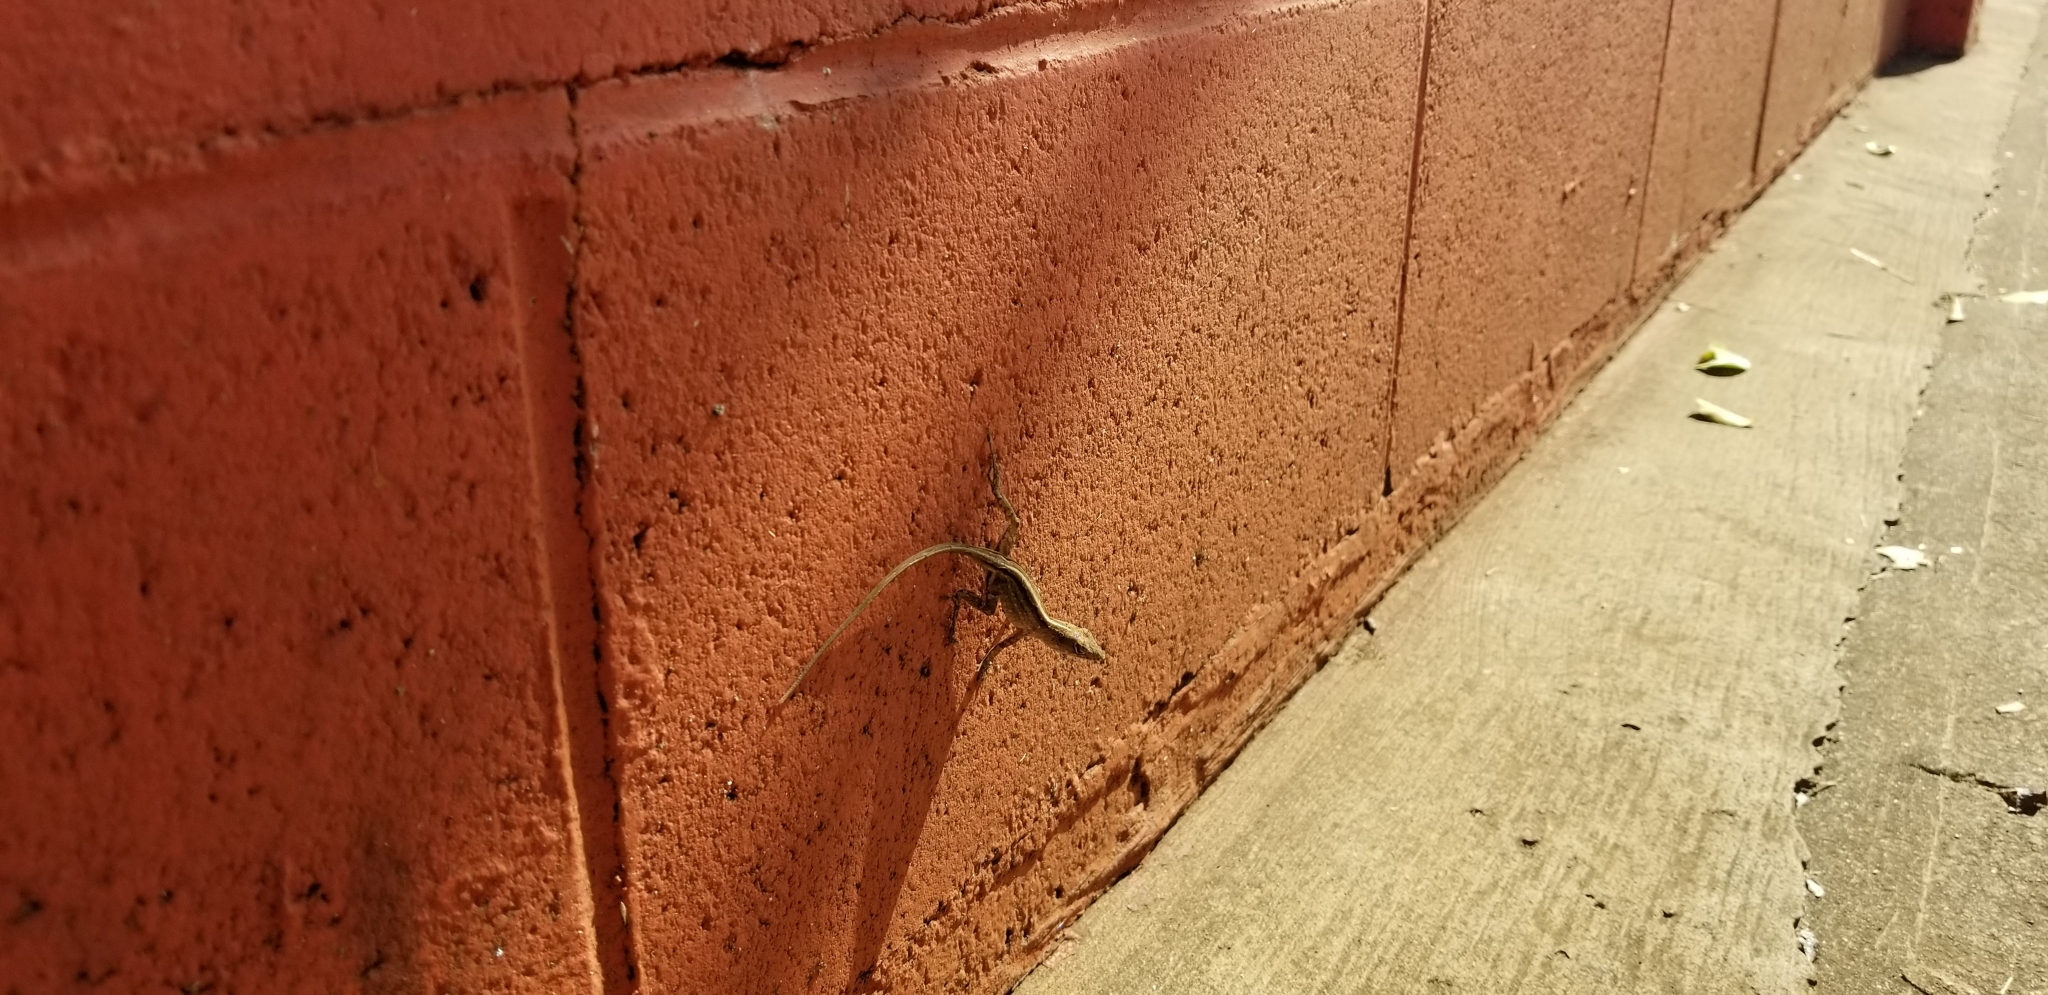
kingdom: Animalia
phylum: Chordata
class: Squamata
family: Dactyloidae
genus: Anolis
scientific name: Anolis sagrei
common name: Brown anole
